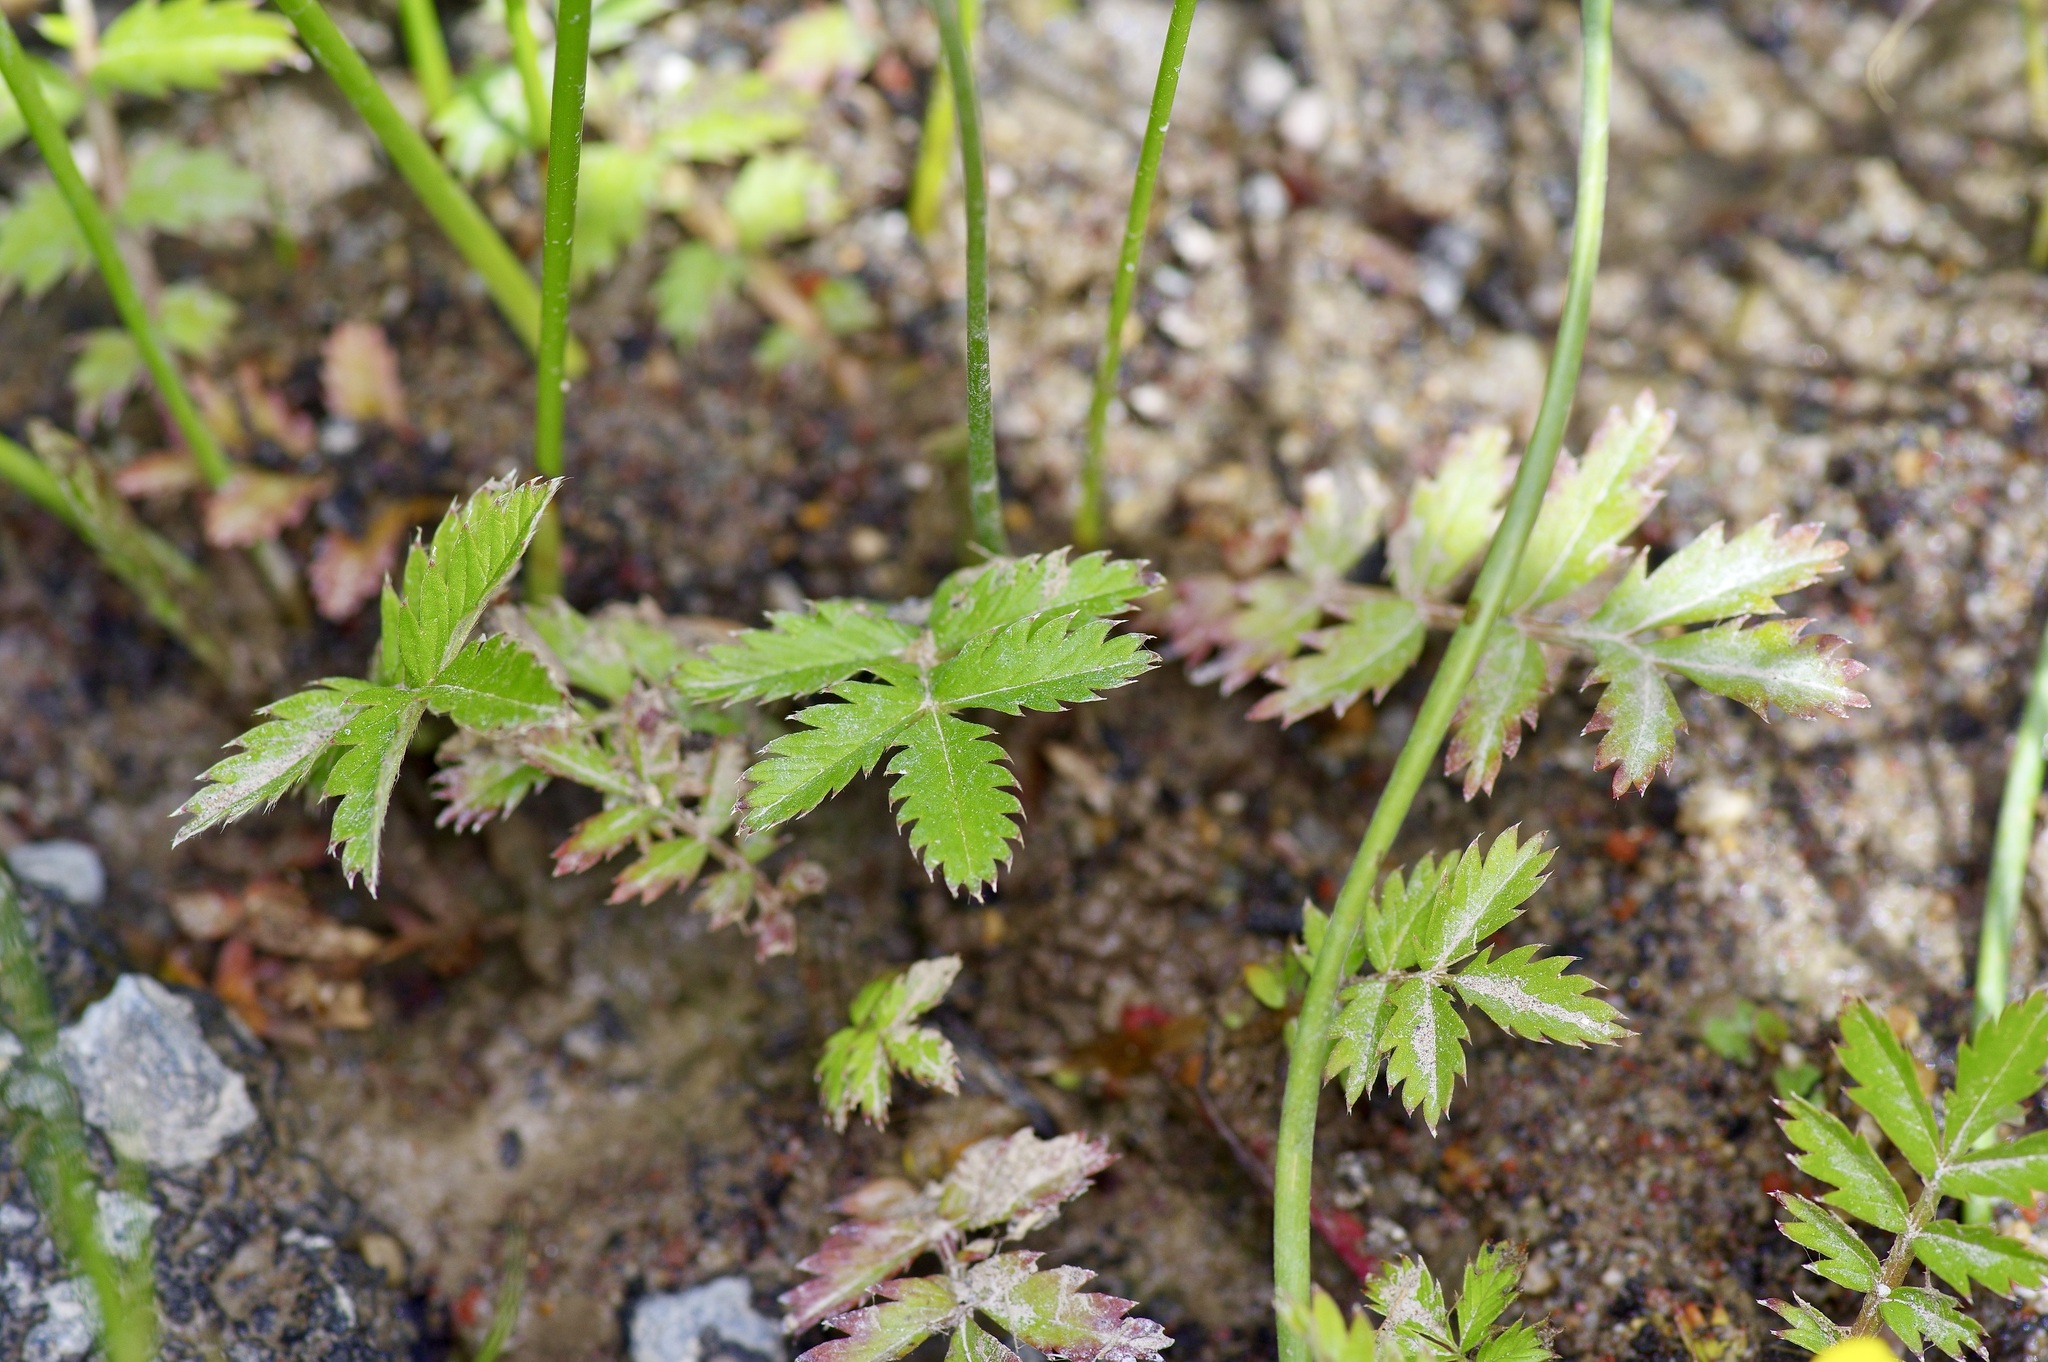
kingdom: Plantae
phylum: Tracheophyta
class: Magnoliopsida
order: Rosales
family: Rosaceae
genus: Argentina
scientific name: Argentina anserina
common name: Common silverweed
